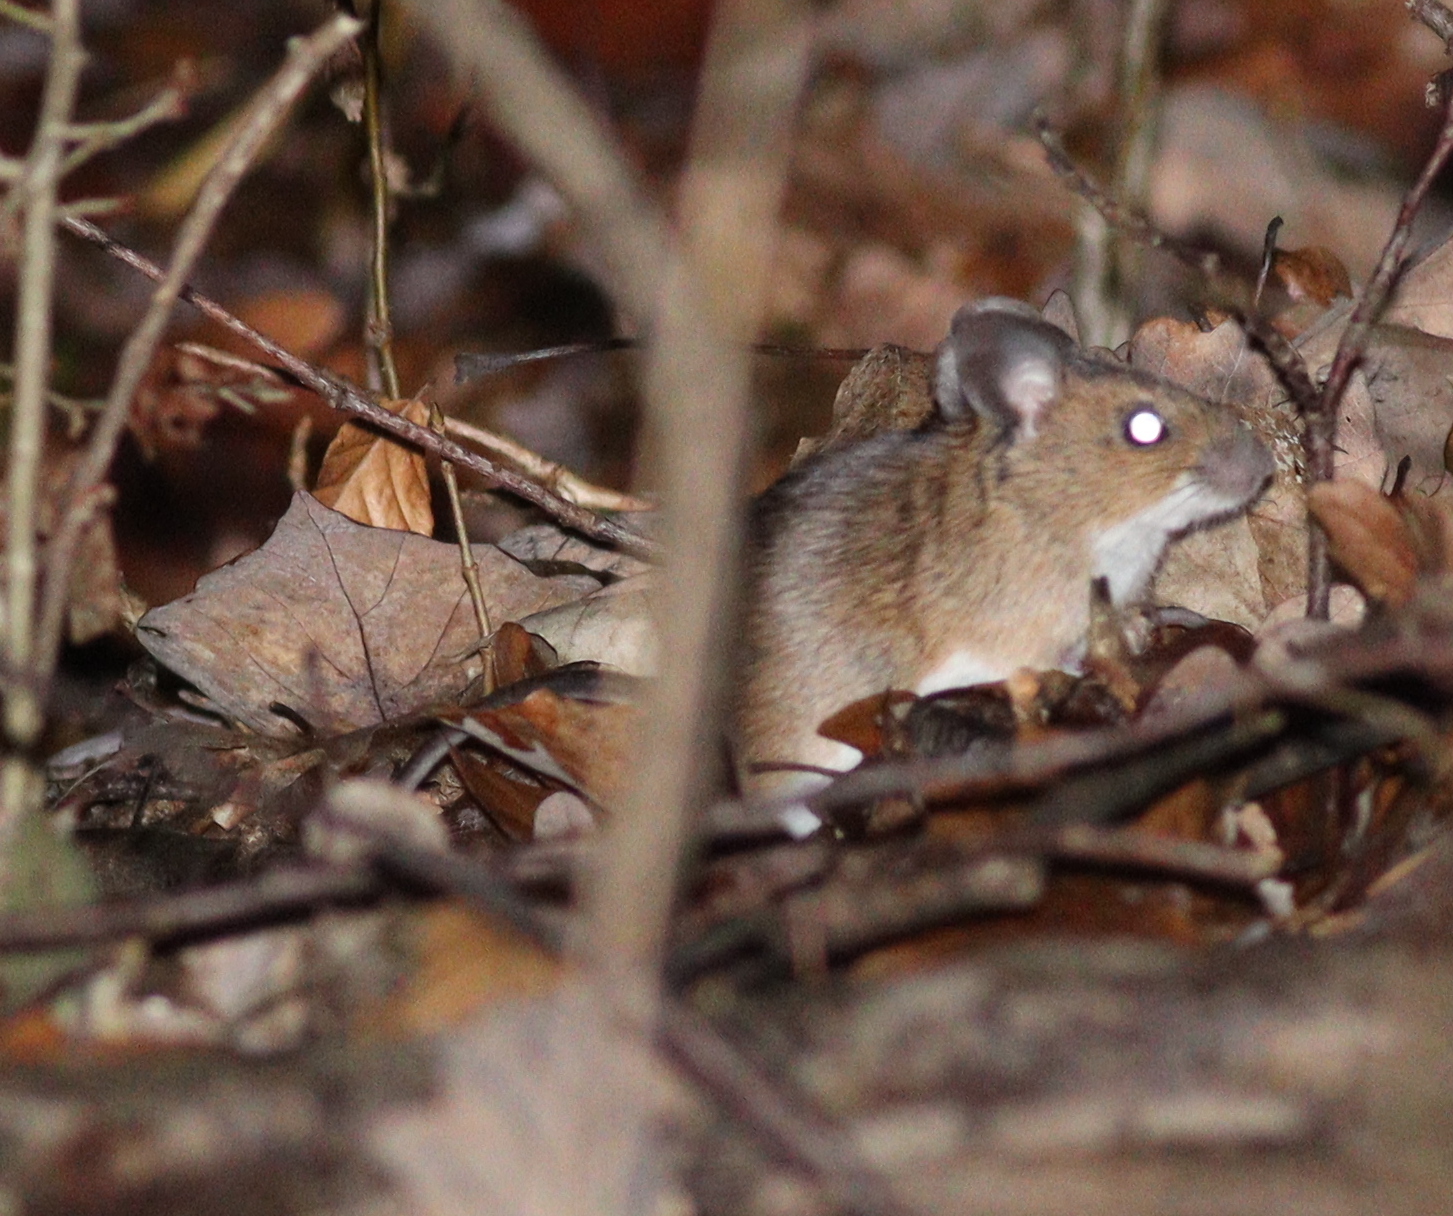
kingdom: Animalia
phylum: Chordata
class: Mammalia
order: Rodentia
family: Muridae
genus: Apodemus
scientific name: Apodemus flavicollis
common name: Yellow-necked field mouse
